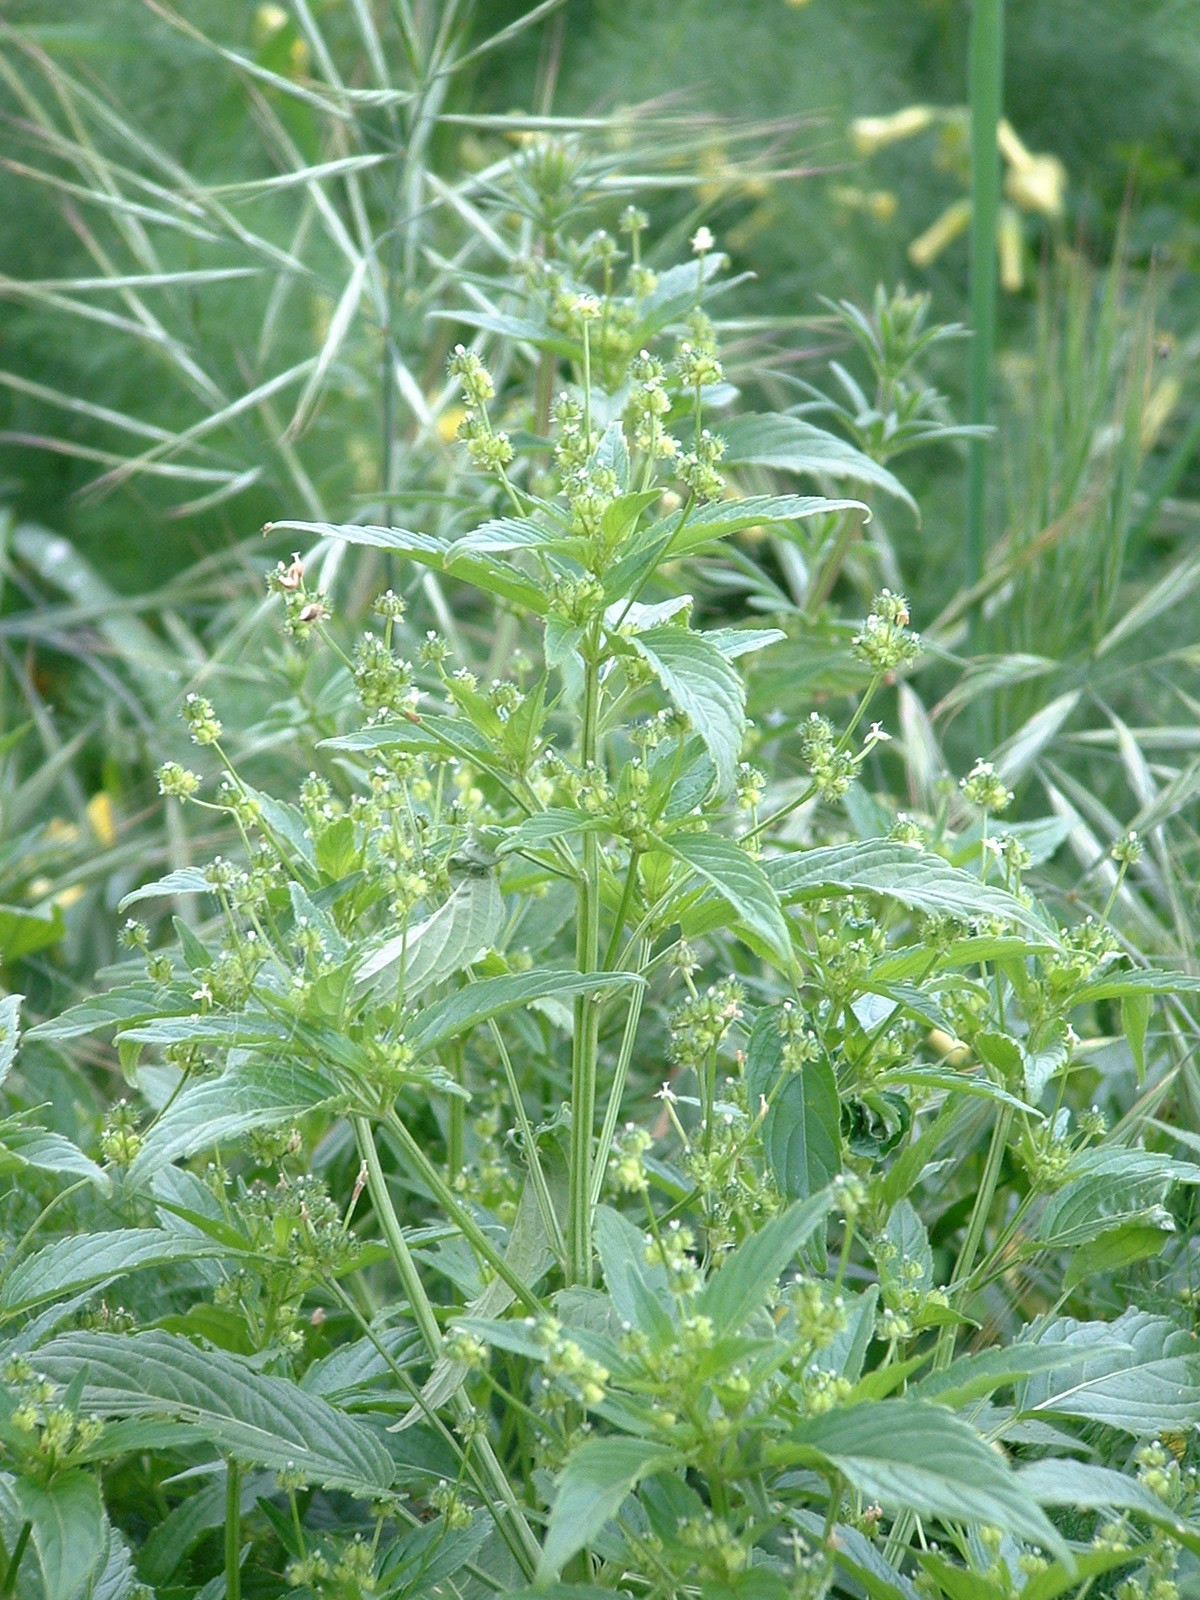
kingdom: Plantae
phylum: Tracheophyta
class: Magnoliopsida
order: Malpighiales
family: Euphorbiaceae
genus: Mercurialis
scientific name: Mercurialis canariensis
